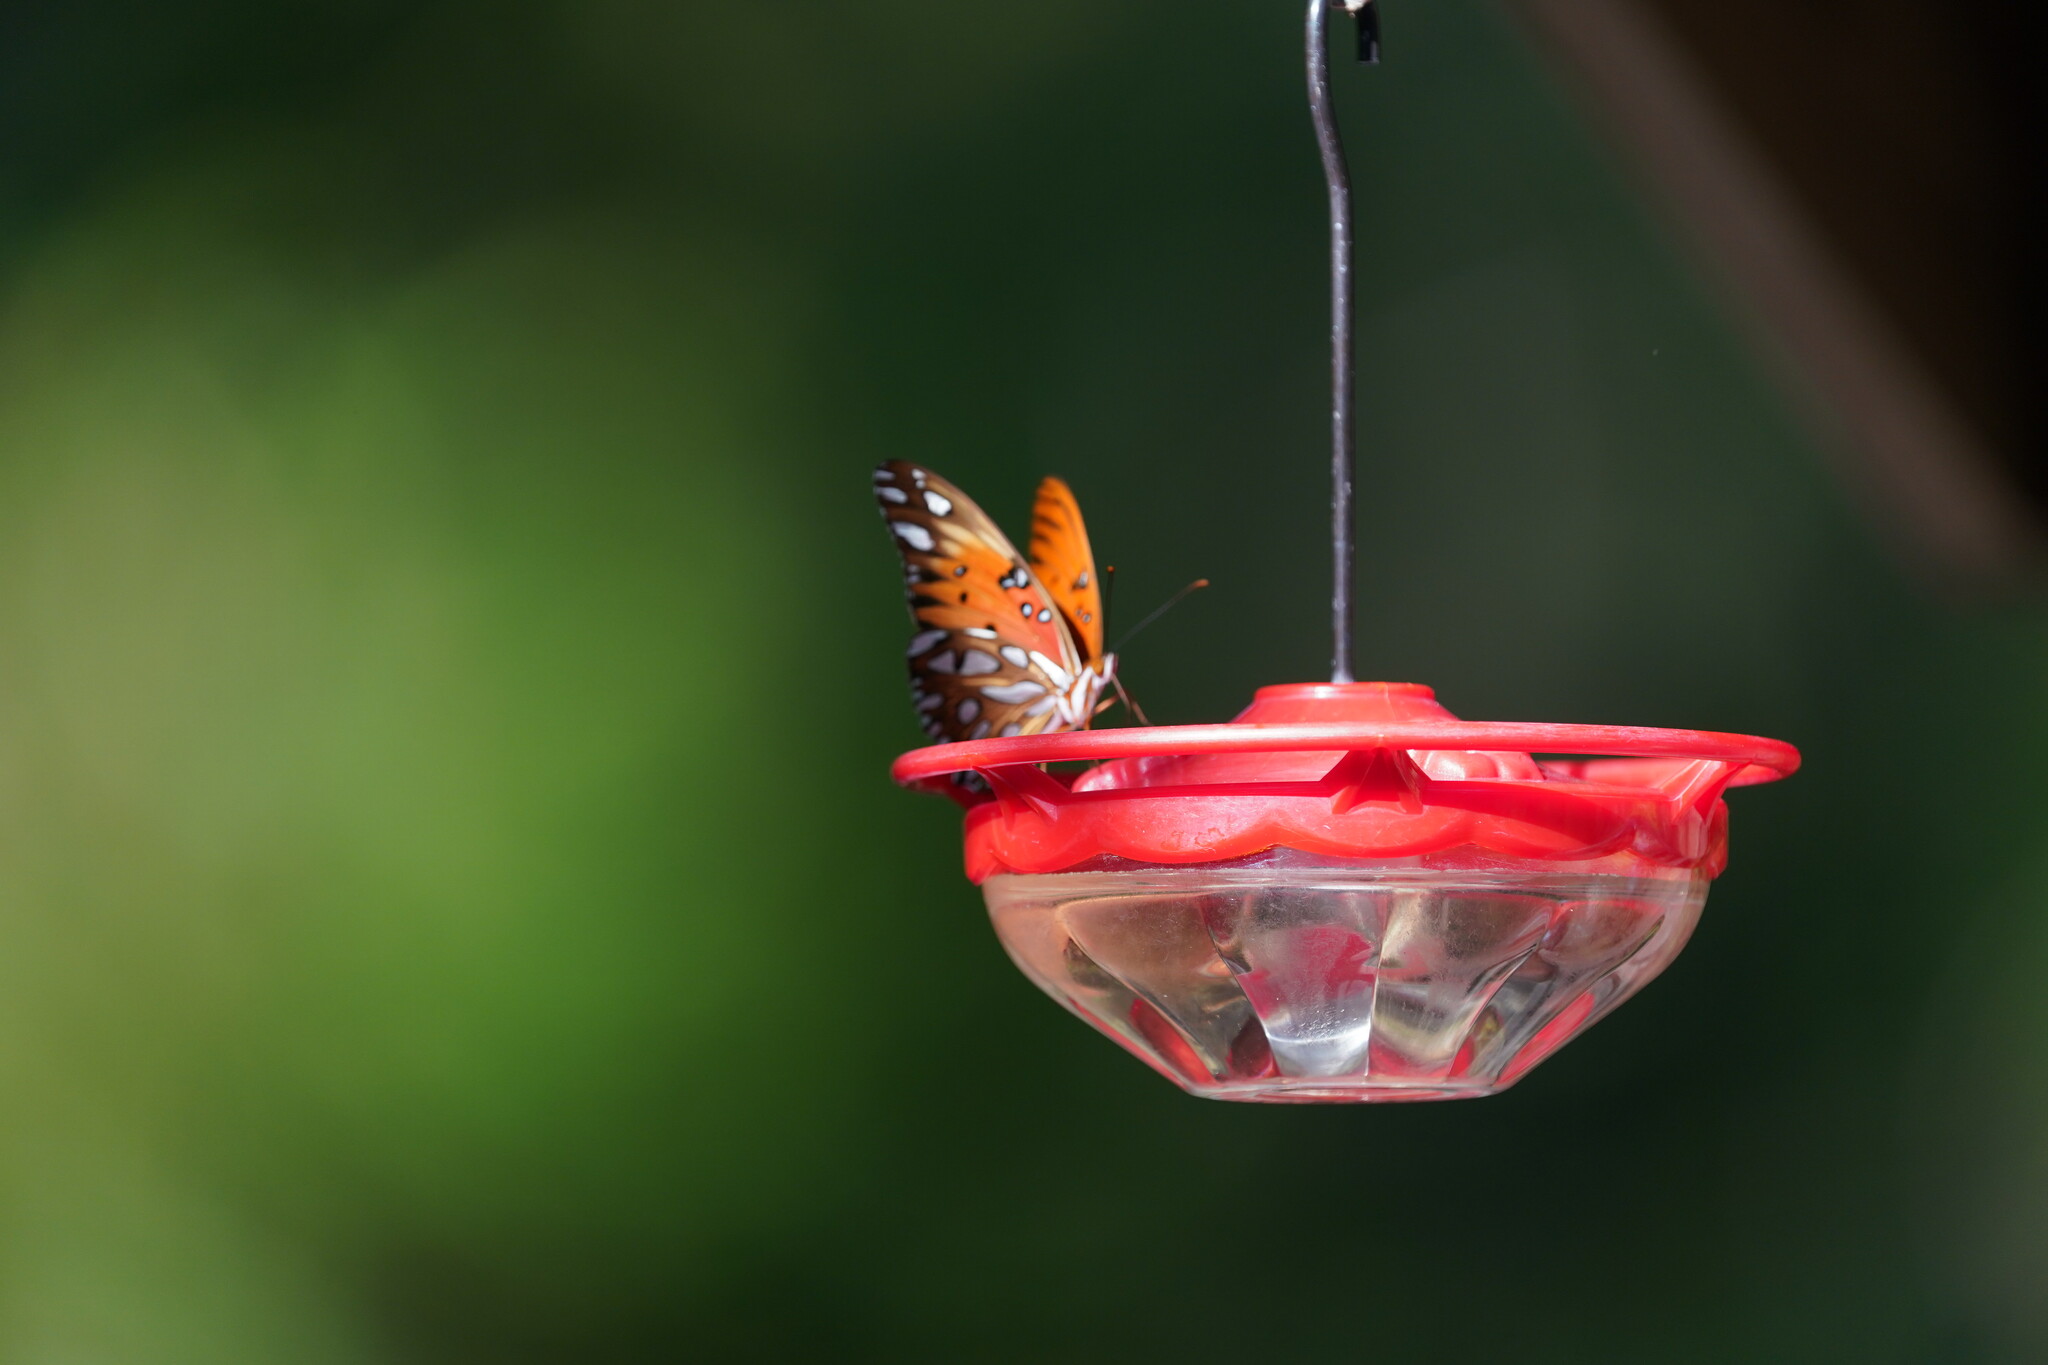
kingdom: Animalia
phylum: Arthropoda
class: Insecta
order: Lepidoptera
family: Nymphalidae
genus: Dione
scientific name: Dione vanillae
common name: Gulf fritillary
